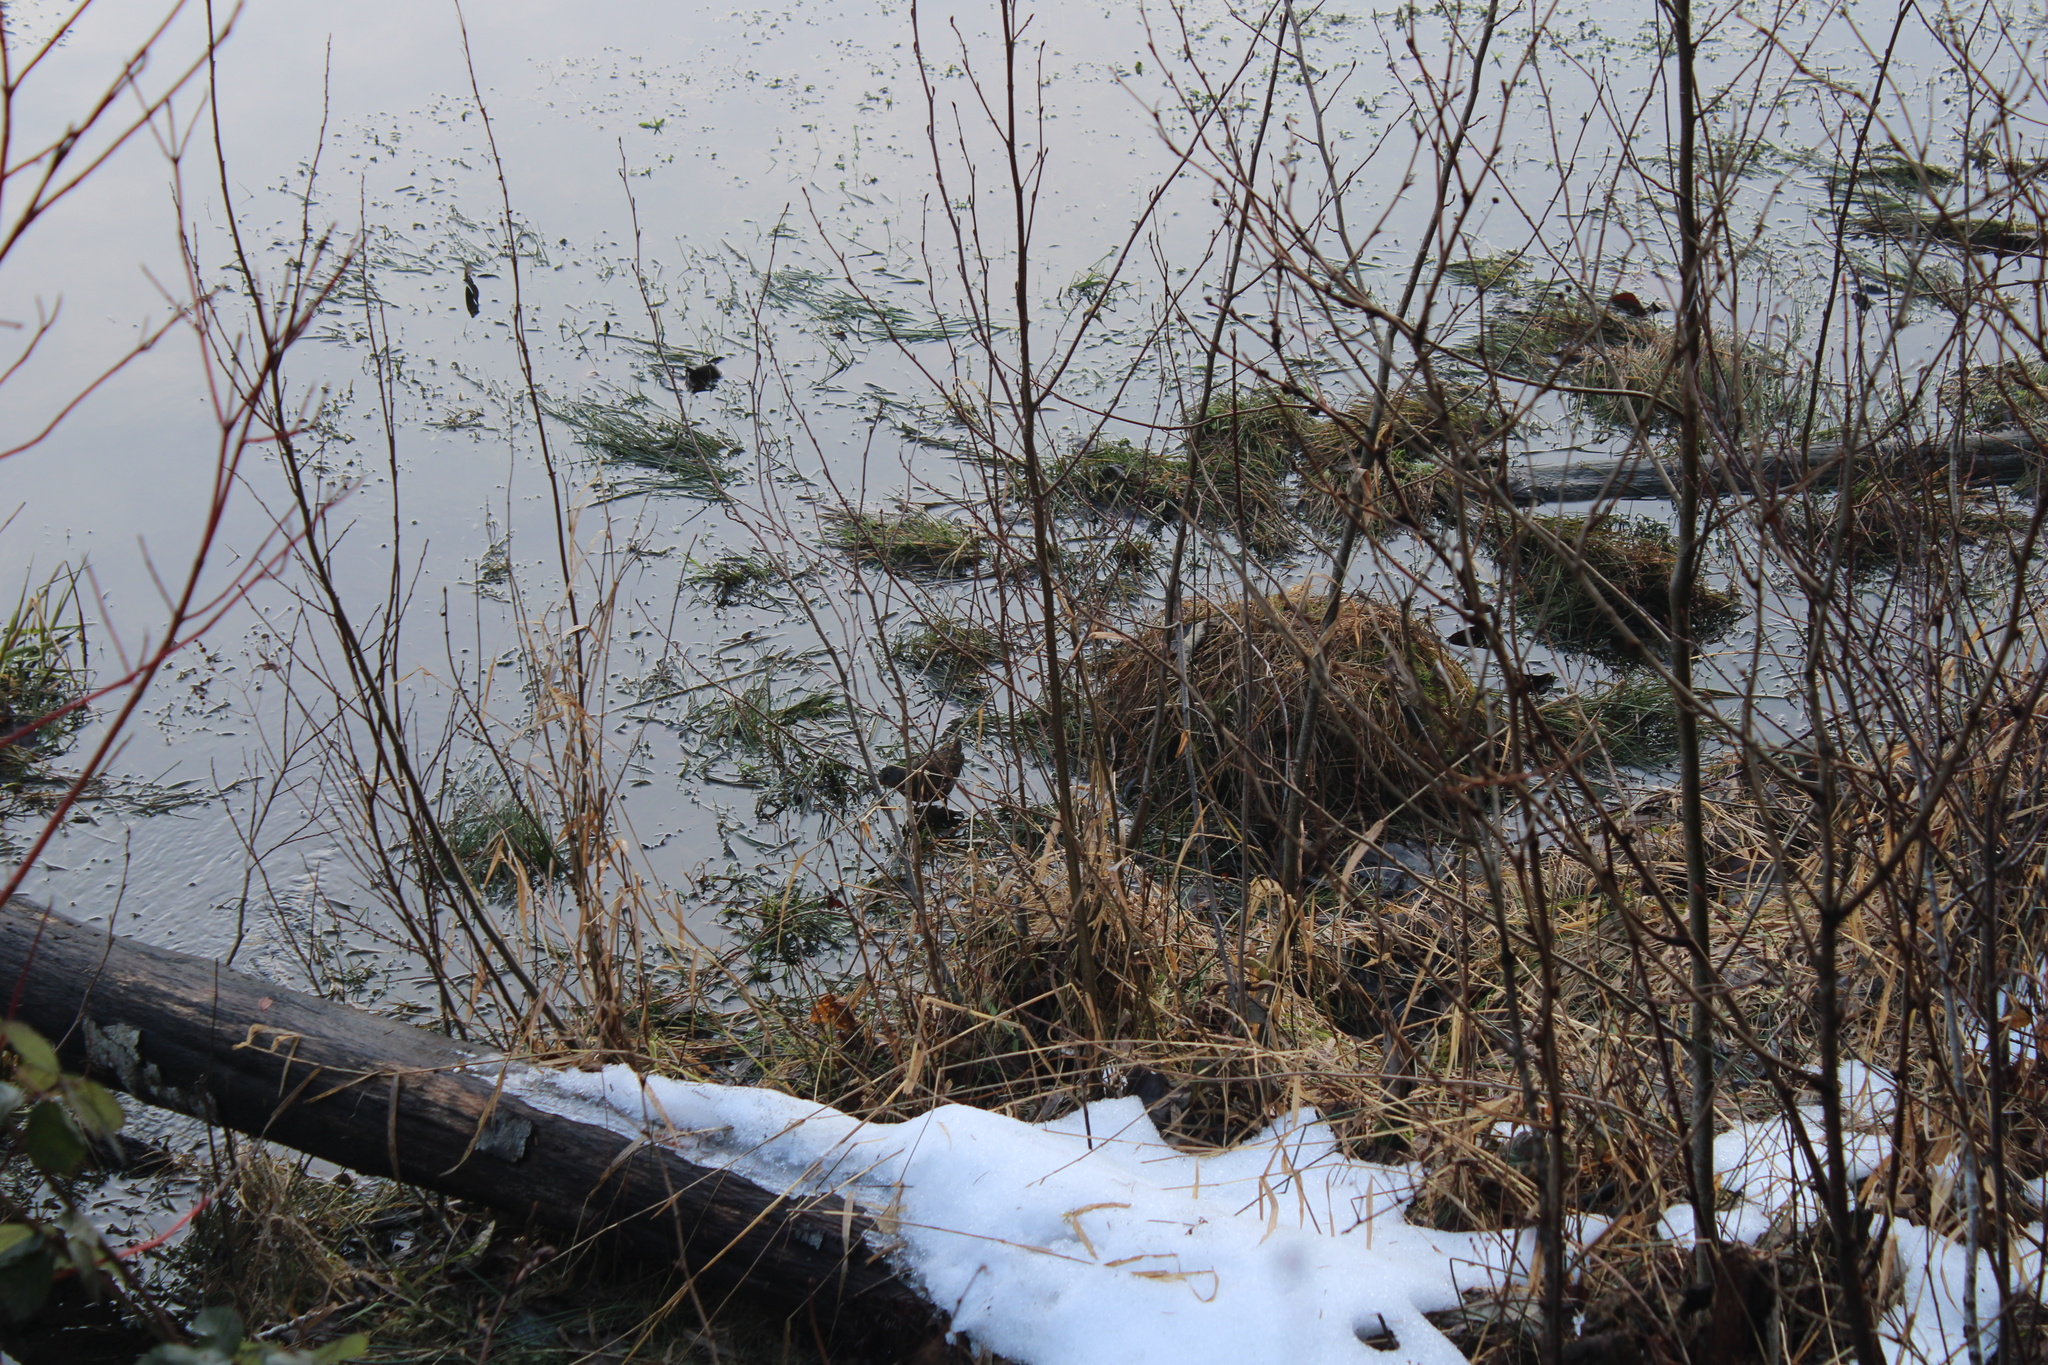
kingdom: Animalia
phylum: Chordata
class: Aves
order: Gruiformes
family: Rallidae
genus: Rallus
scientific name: Rallus limicola
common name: Virginia rail
